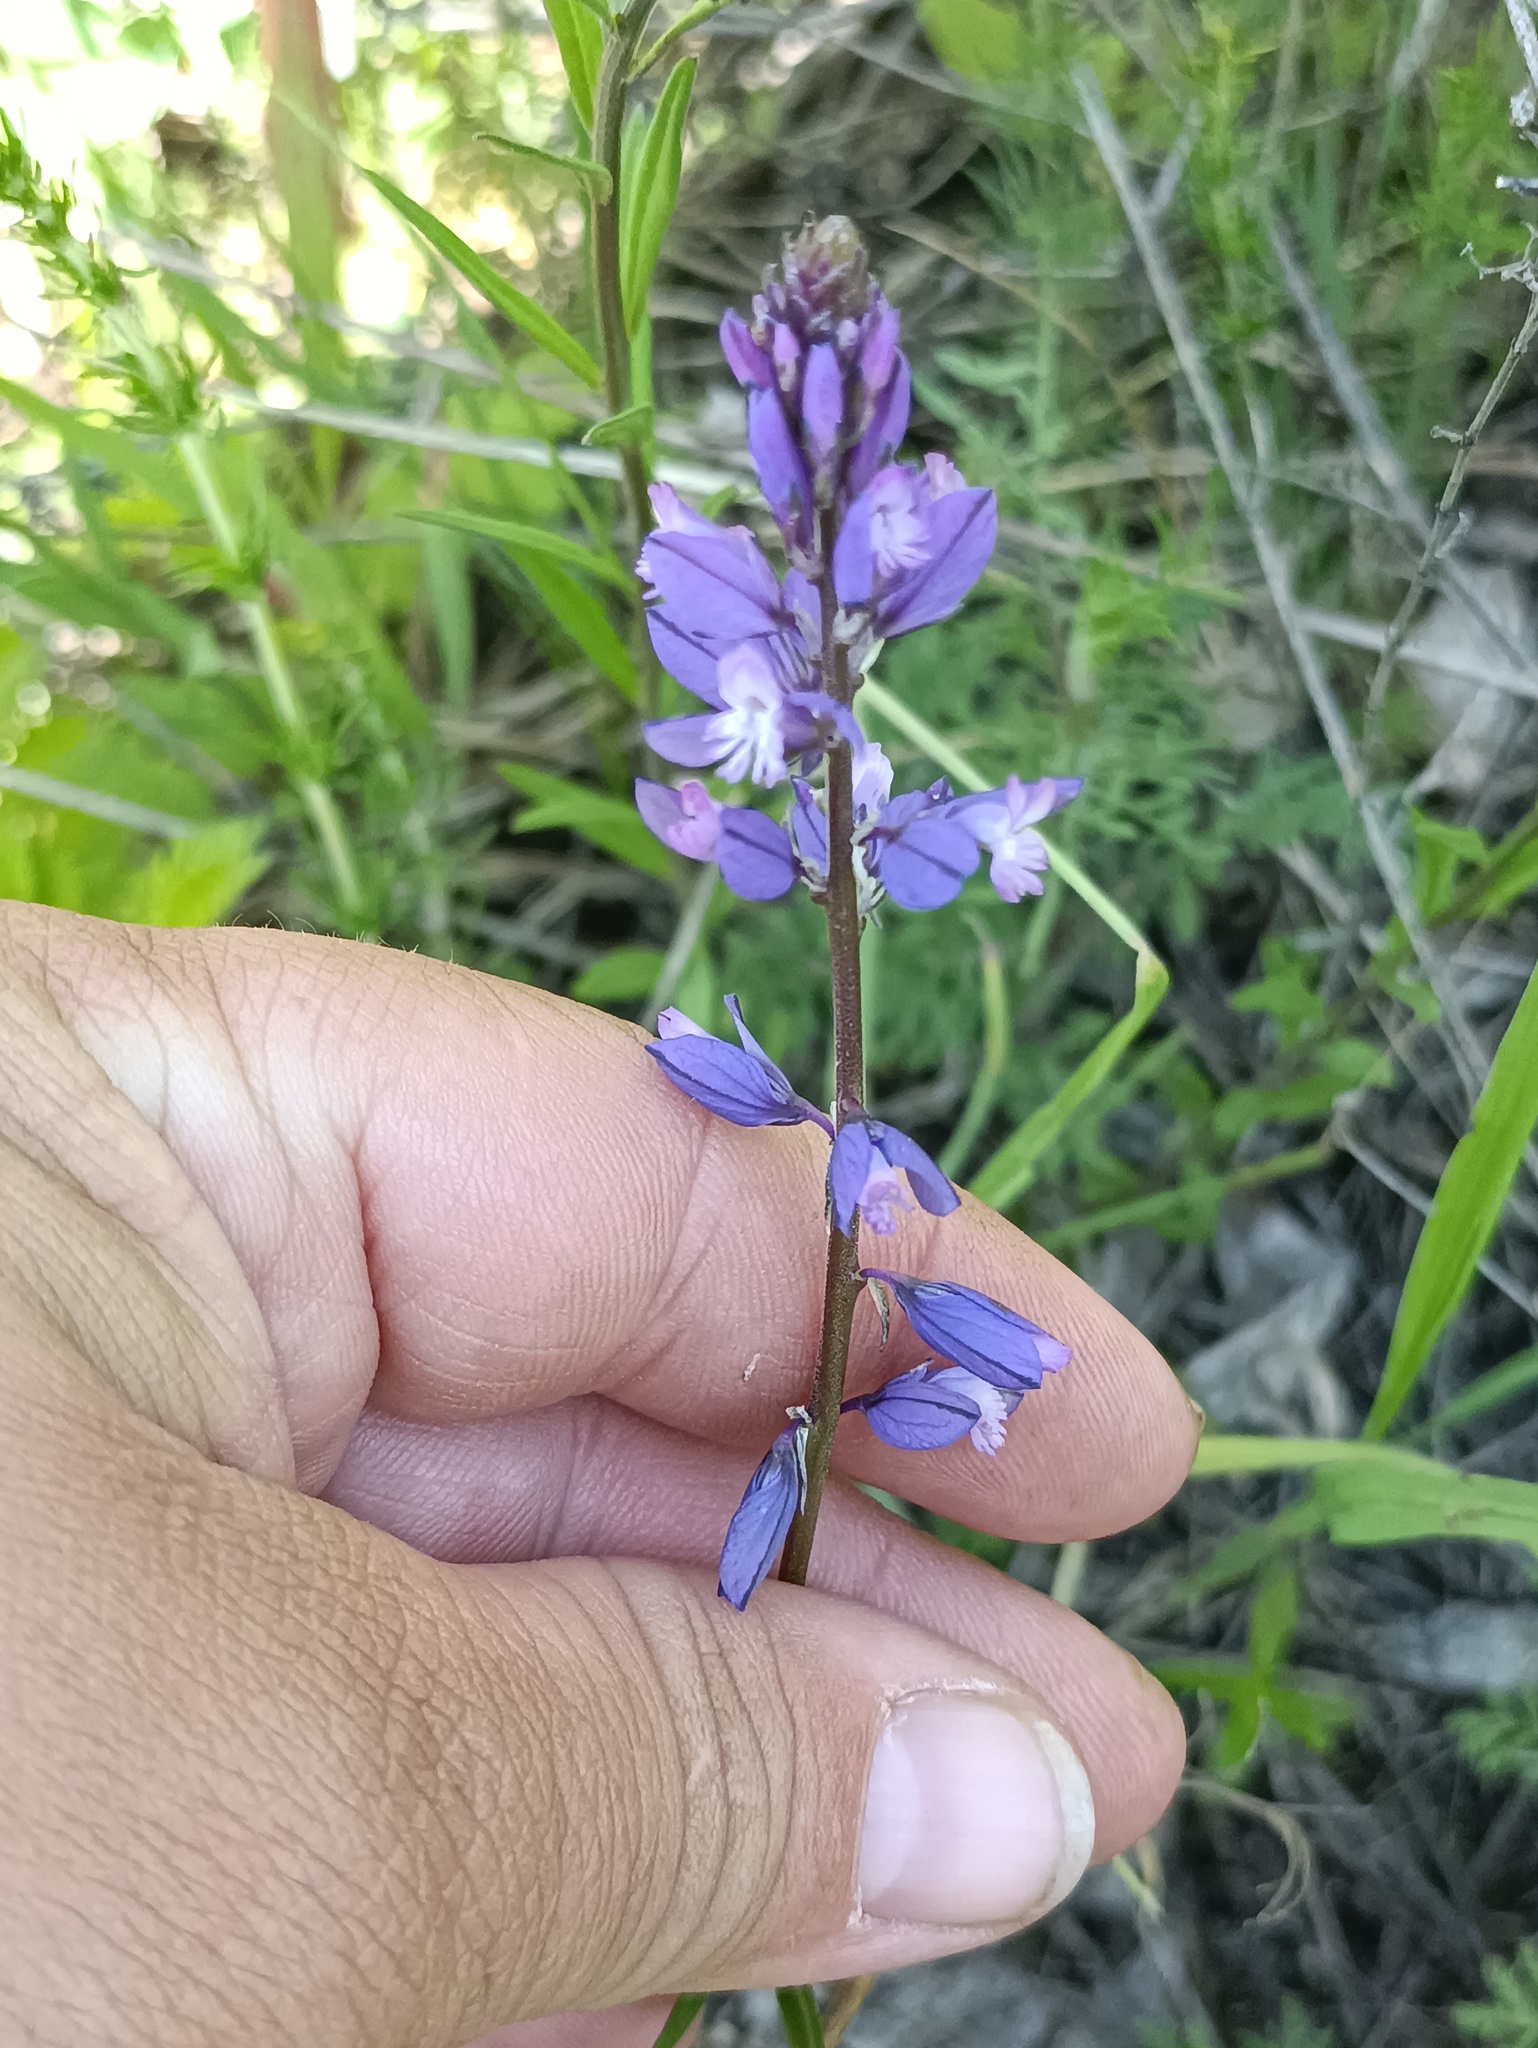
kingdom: Plantae
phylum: Tracheophyta
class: Magnoliopsida
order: Fabales
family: Polygalaceae
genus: Polygala
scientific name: Polygala nicaeensis
